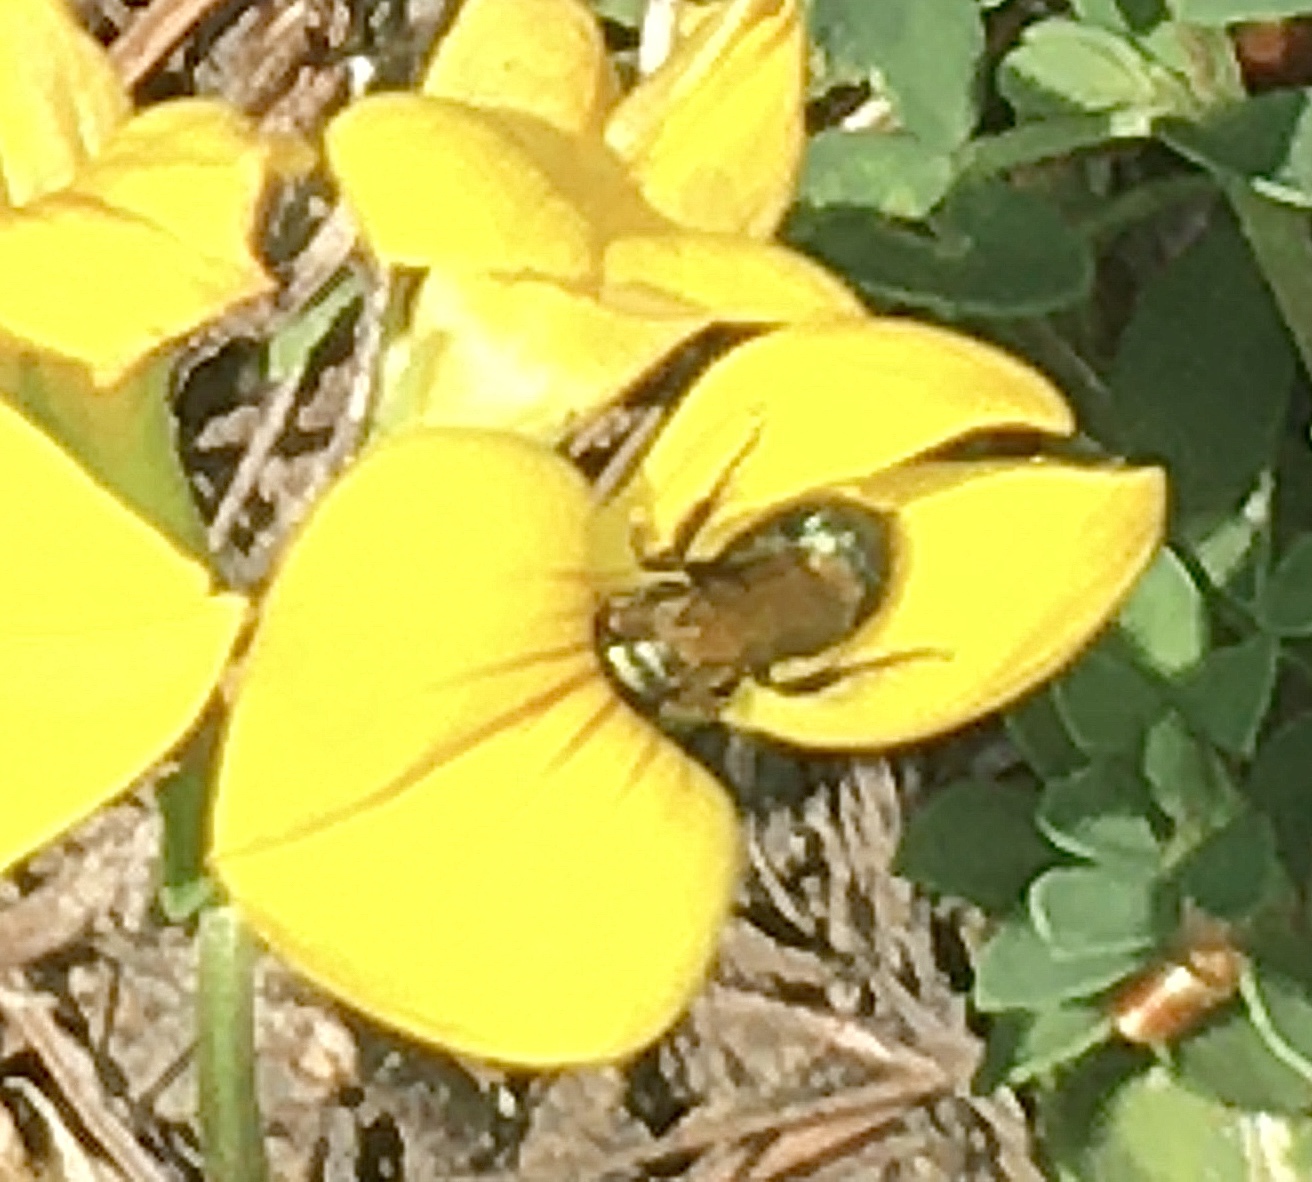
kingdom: Plantae
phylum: Tracheophyta
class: Magnoliopsida
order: Fabales
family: Fabaceae
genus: Lotus
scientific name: Lotus corniculatus
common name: Common bird's-foot-trefoil
